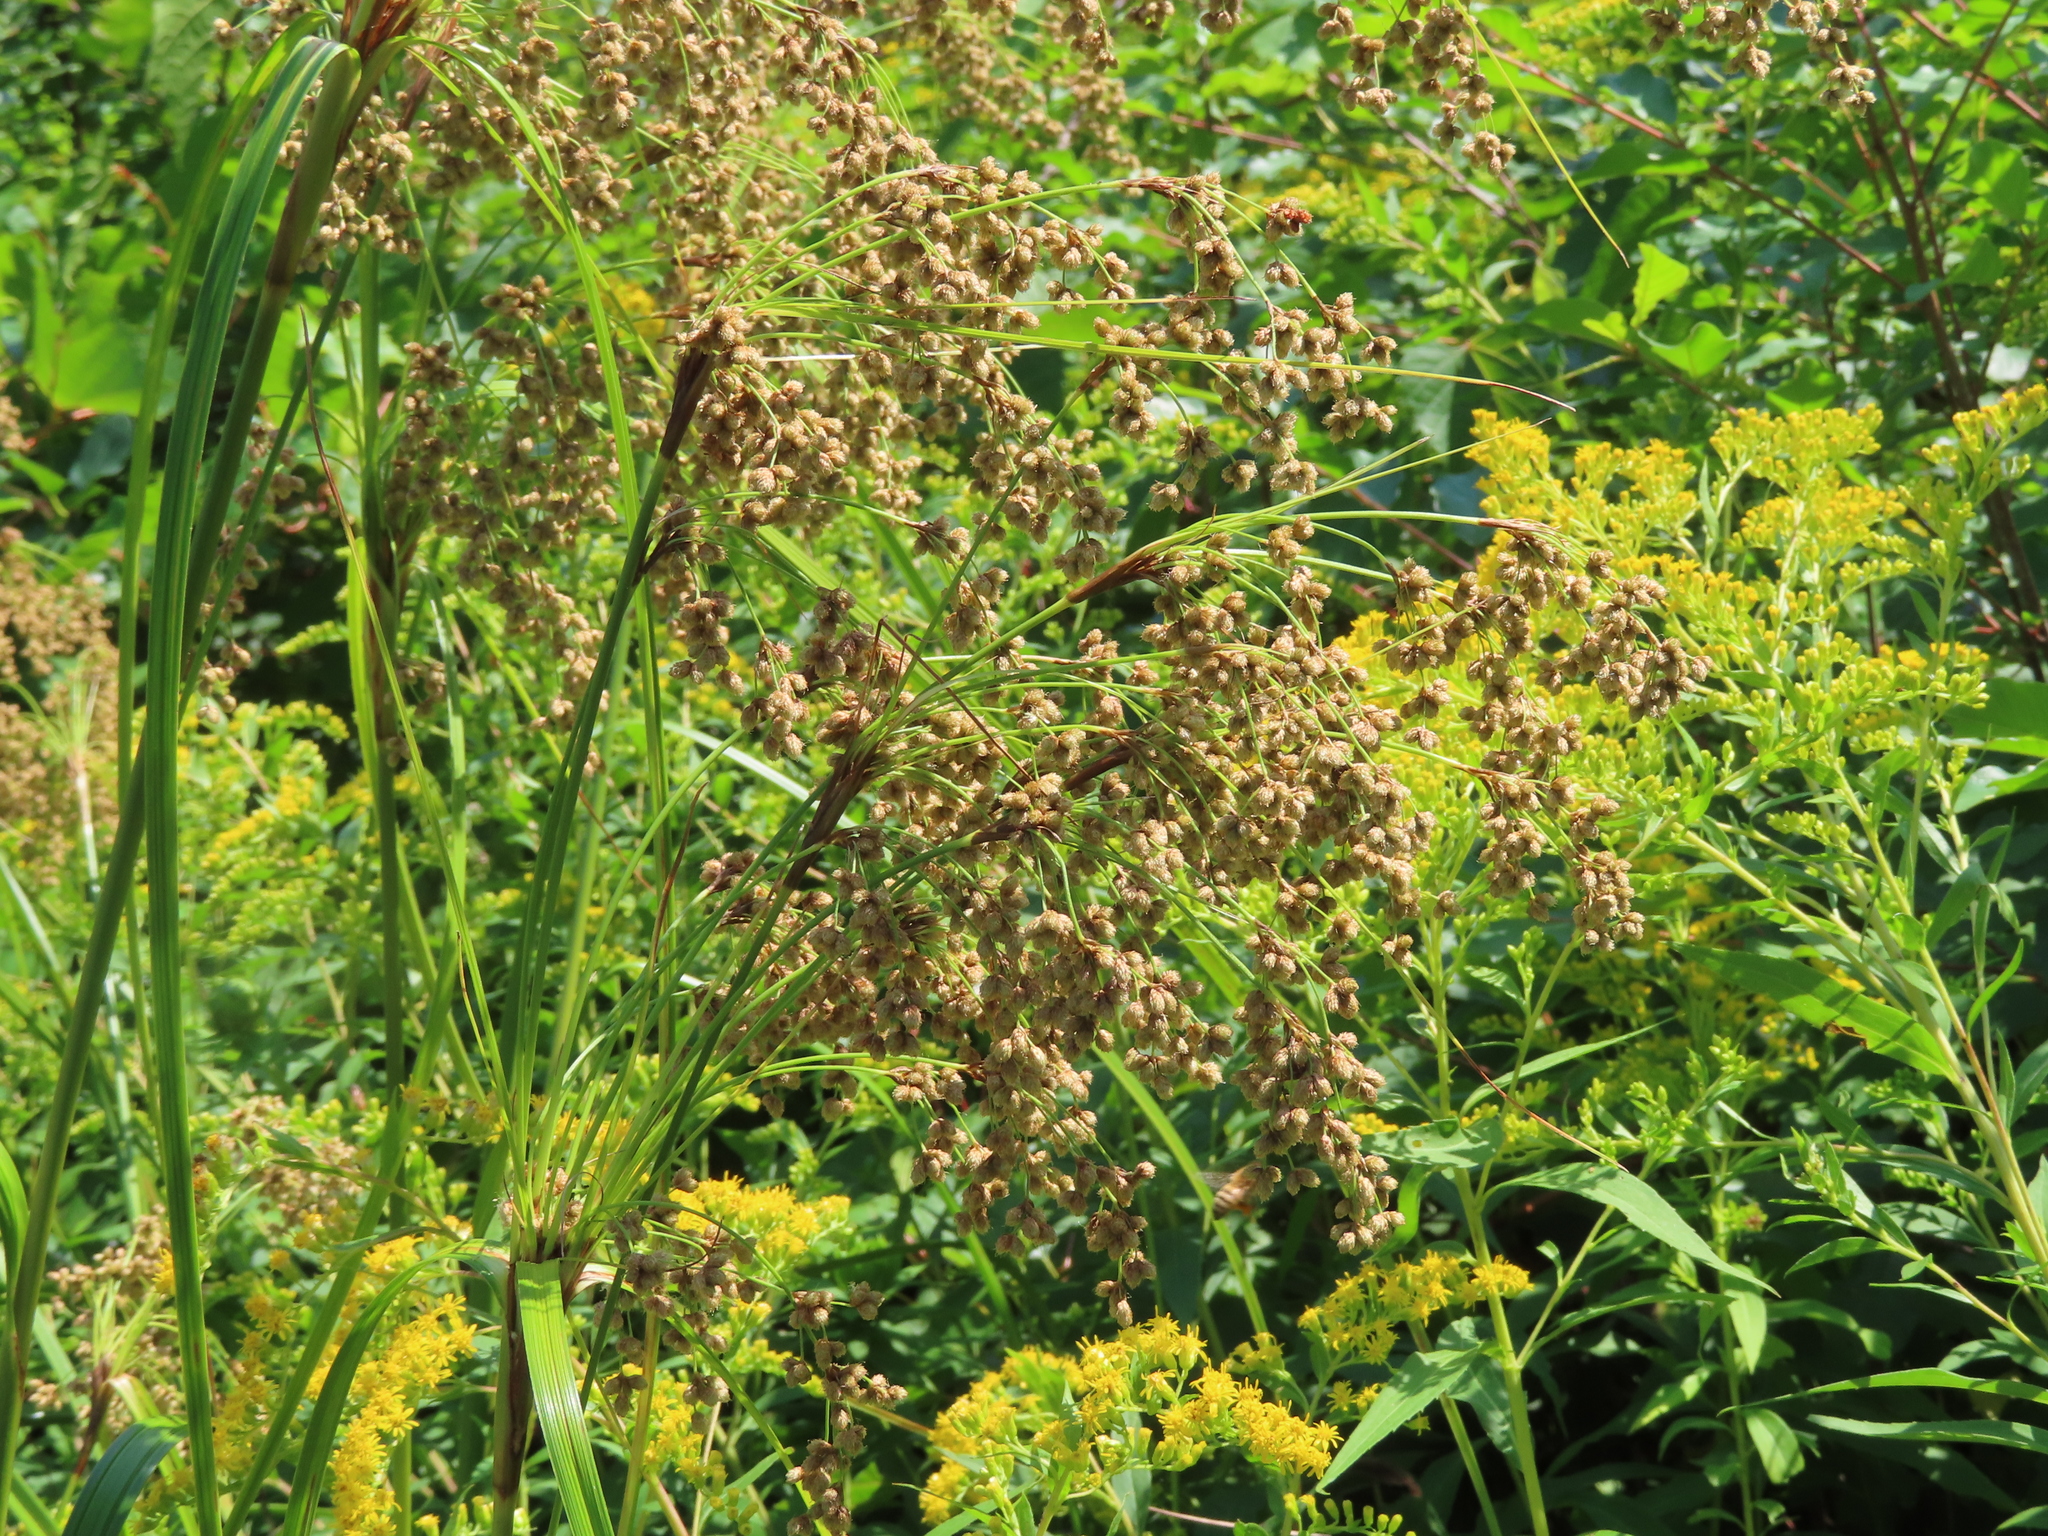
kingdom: Plantae
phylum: Tracheophyta
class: Liliopsida
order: Poales
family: Cyperaceae
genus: Scirpus
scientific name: Scirpus cyperinus
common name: Black-sheathed bulrush
